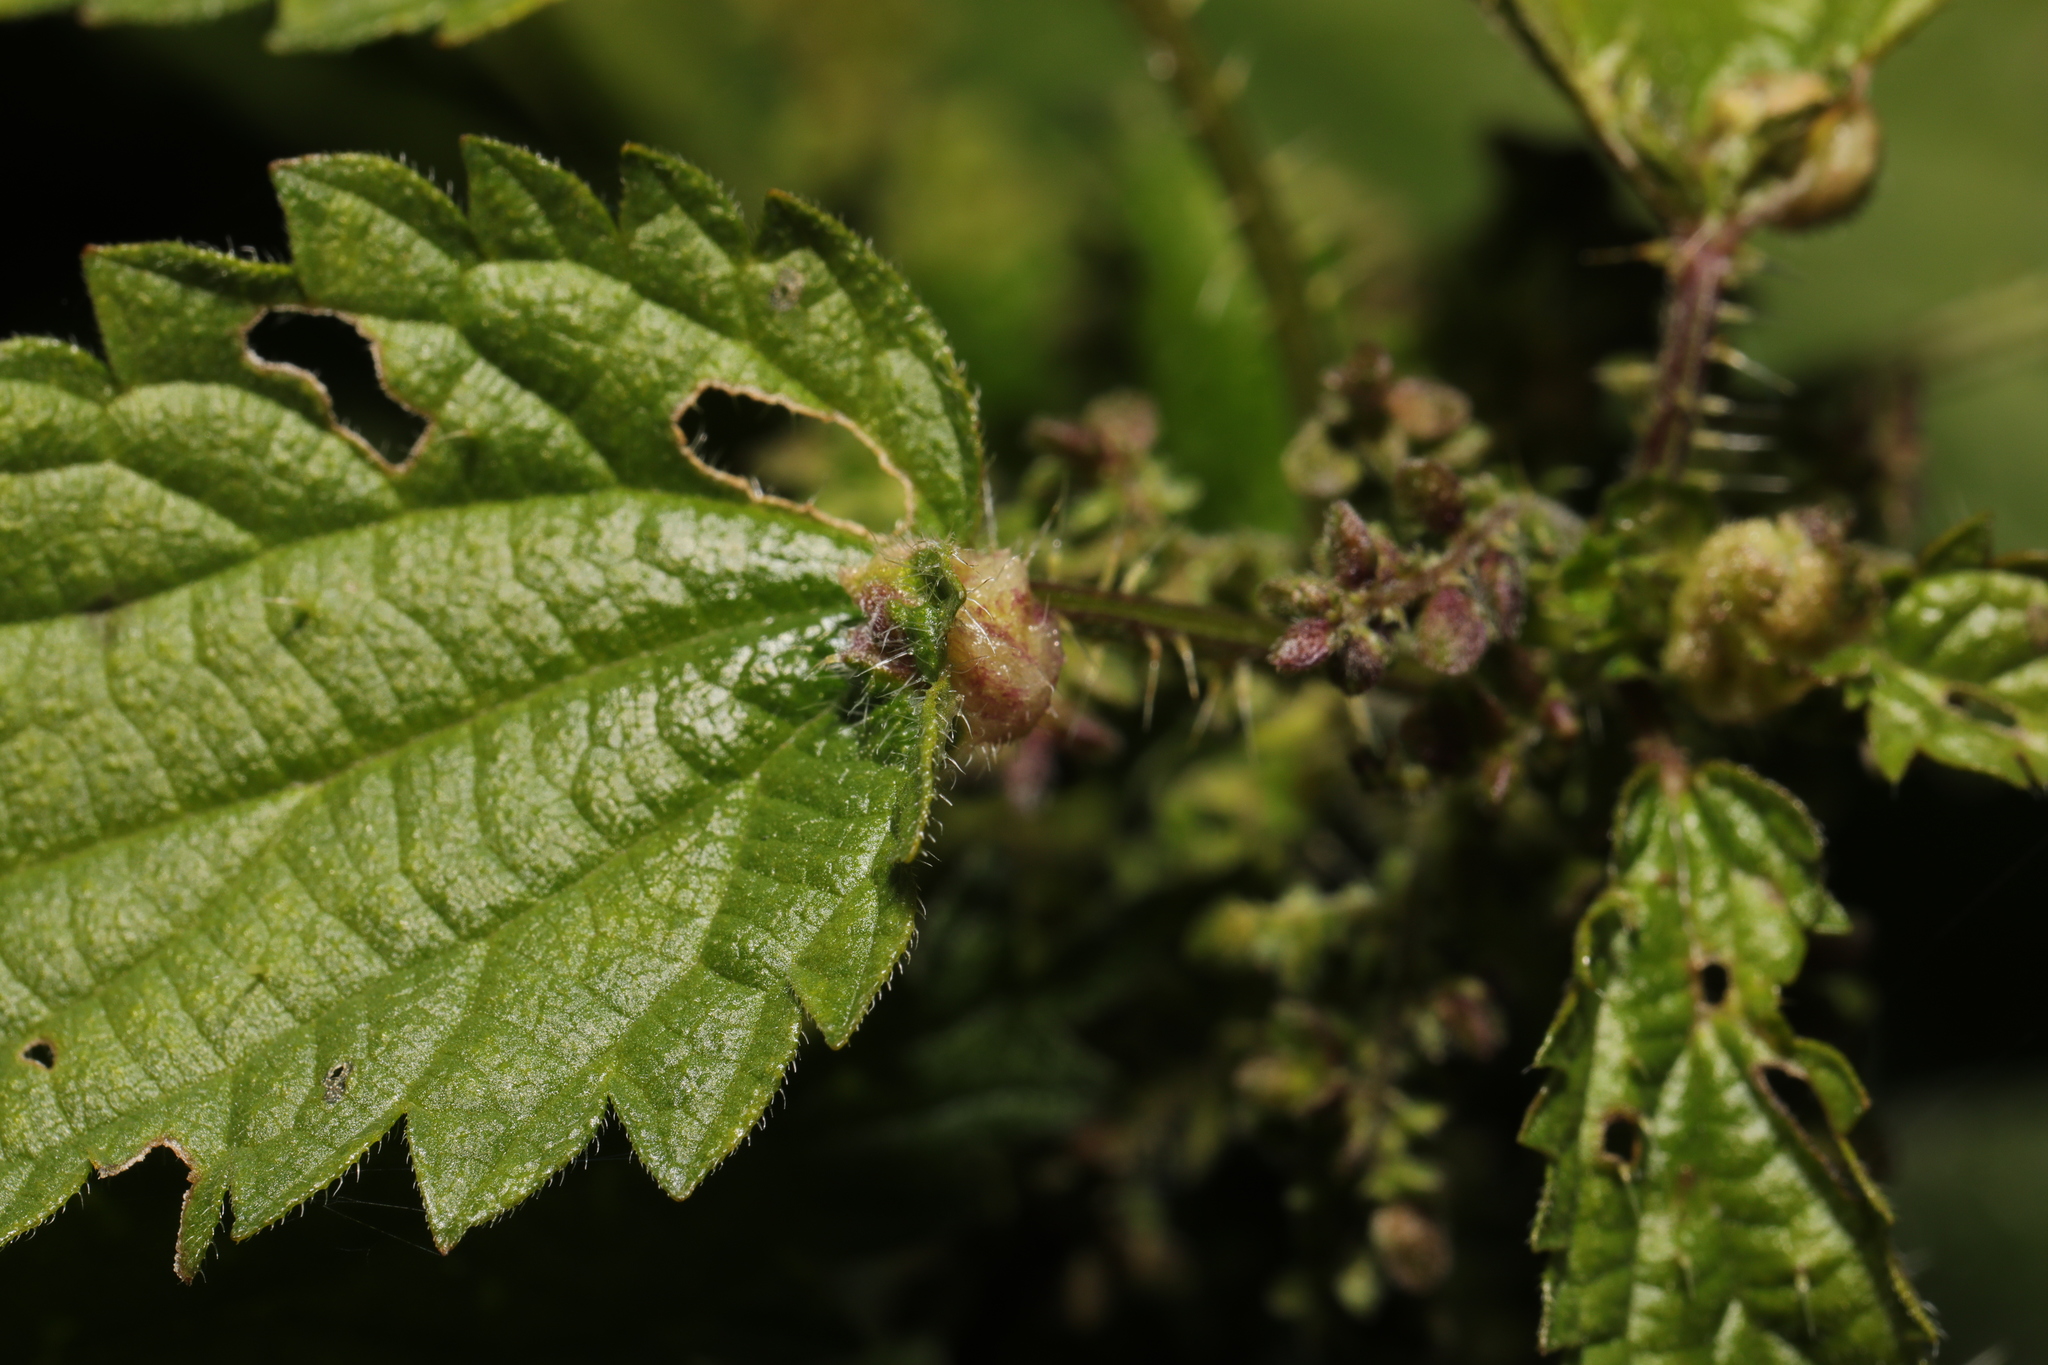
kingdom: Animalia
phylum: Arthropoda
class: Insecta
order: Diptera
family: Cecidomyiidae
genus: Dasineura
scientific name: Dasineura urticae
